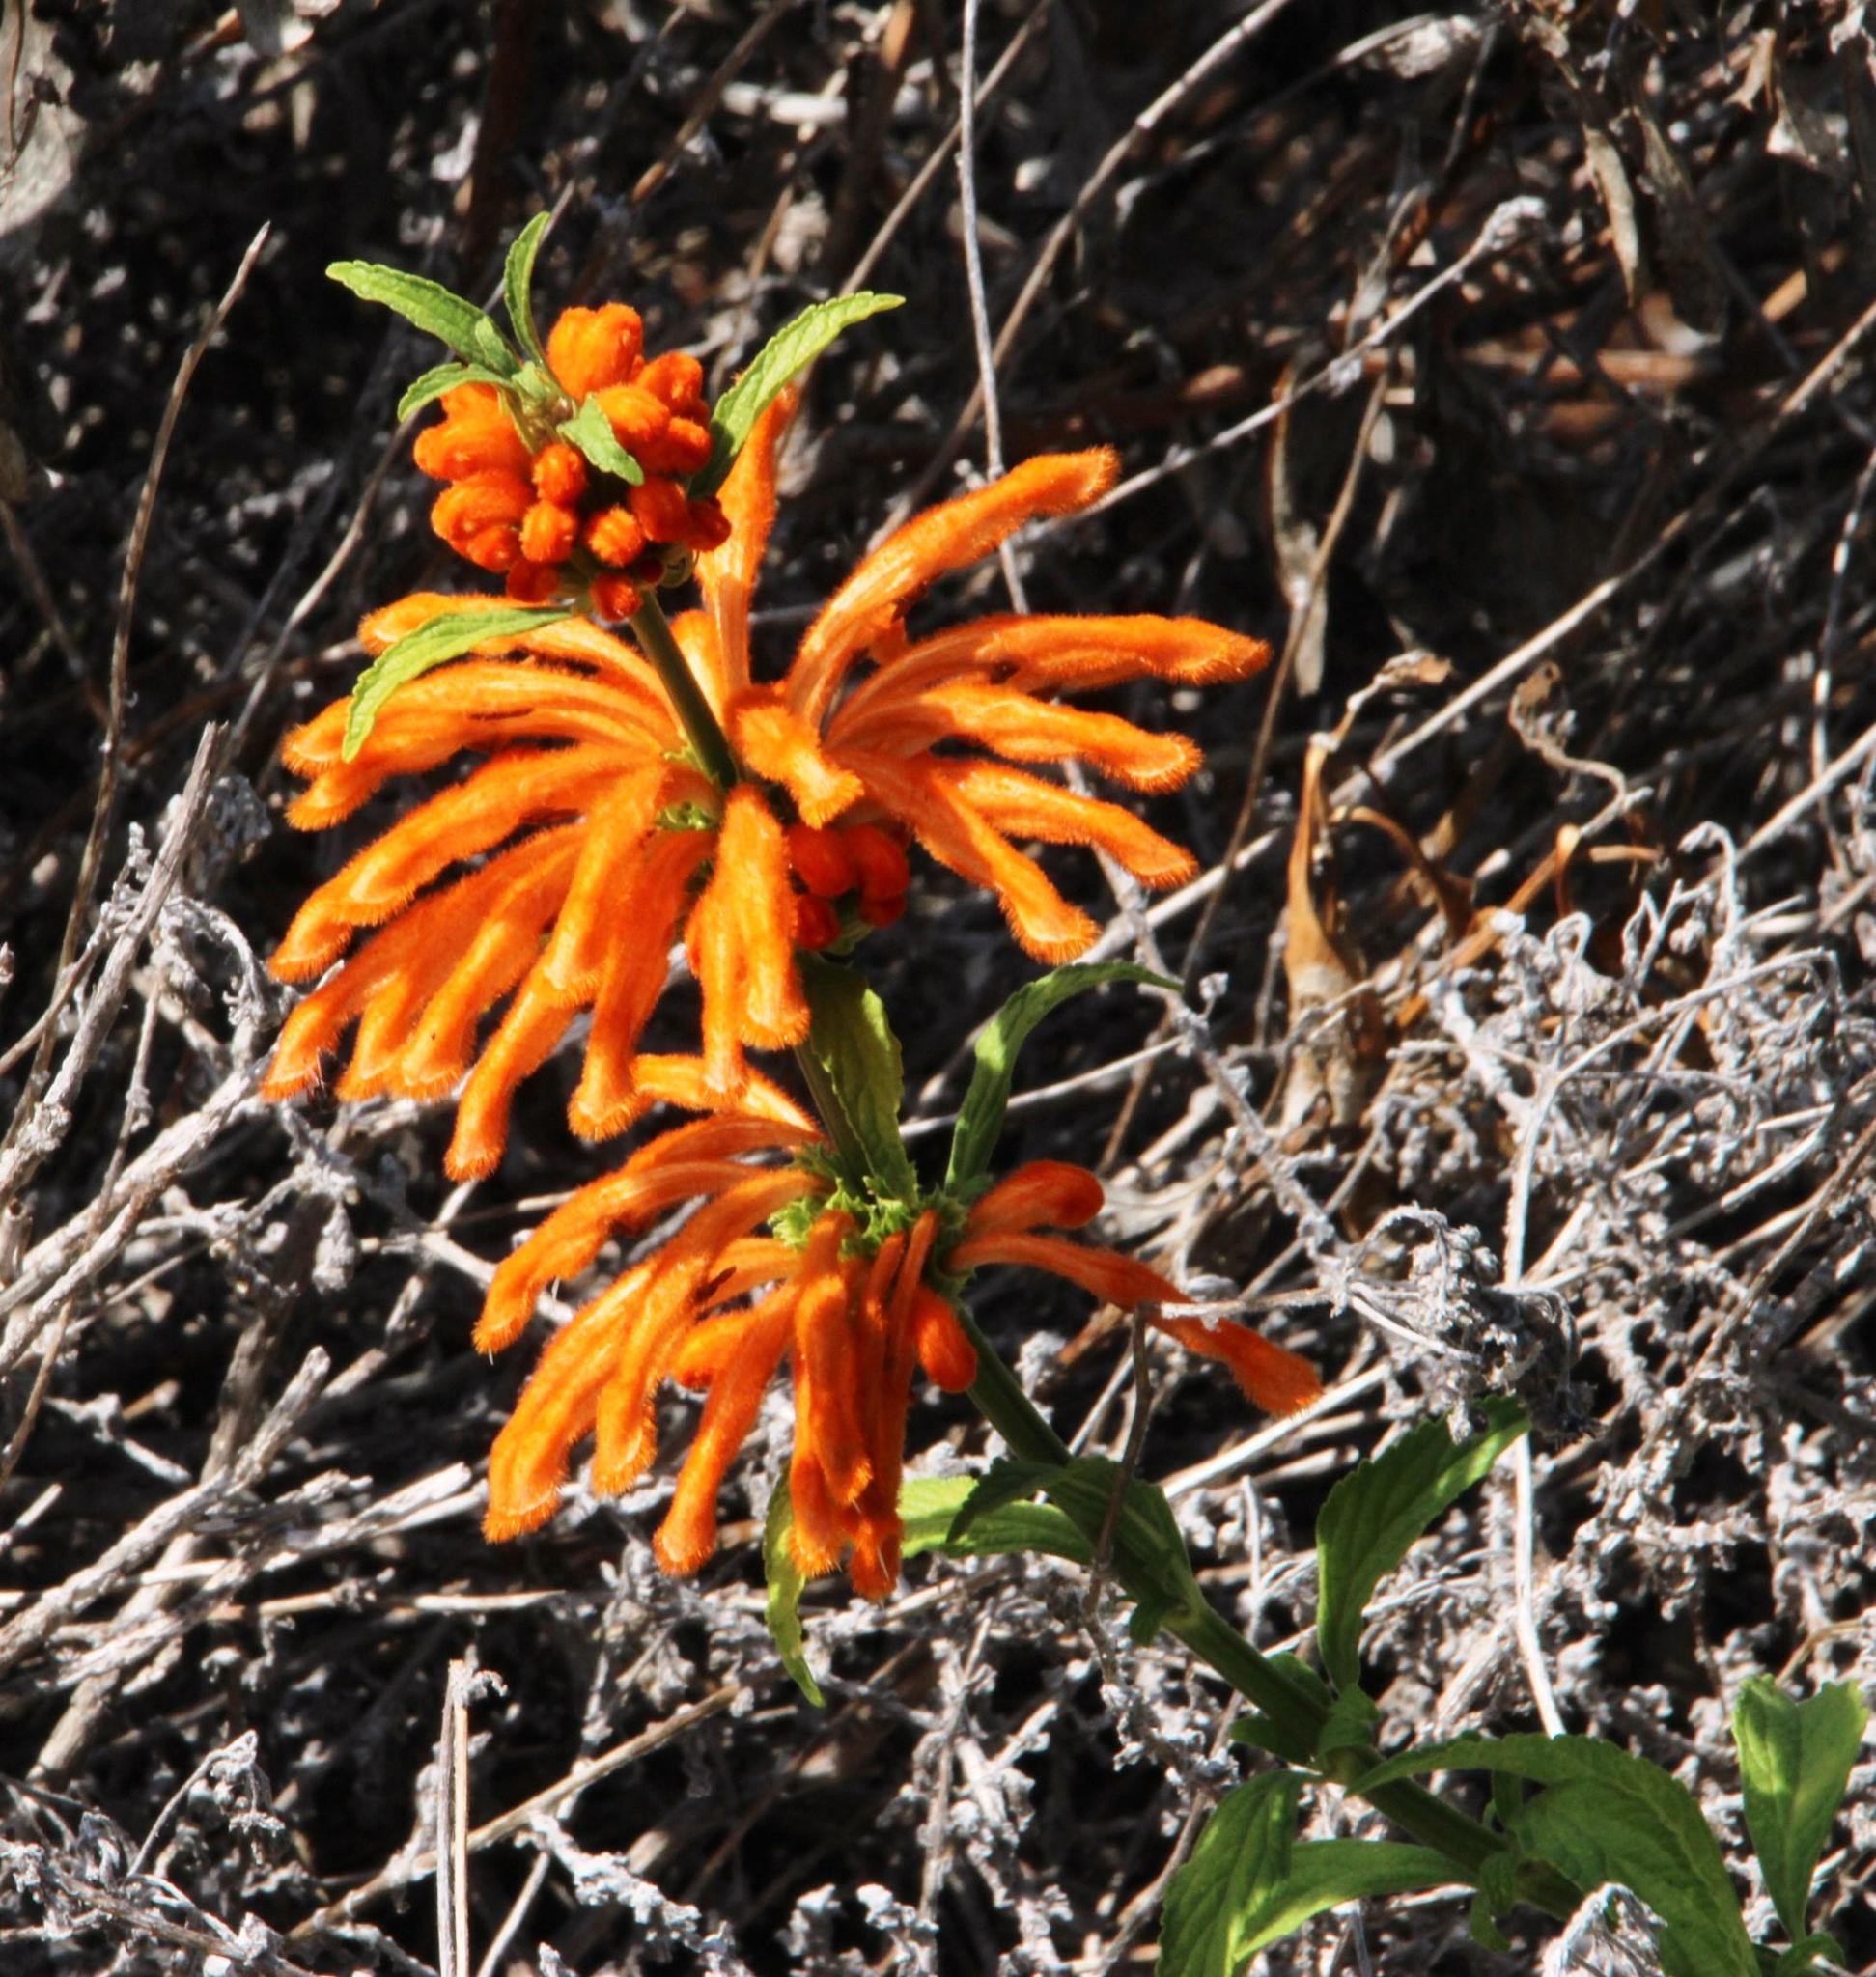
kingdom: Plantae
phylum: Tracheophyta
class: Magnoliopsida
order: Lamiales
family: Lamiaceae
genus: Leonotis
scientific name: Leonotis leonurus
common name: Lion's ear
